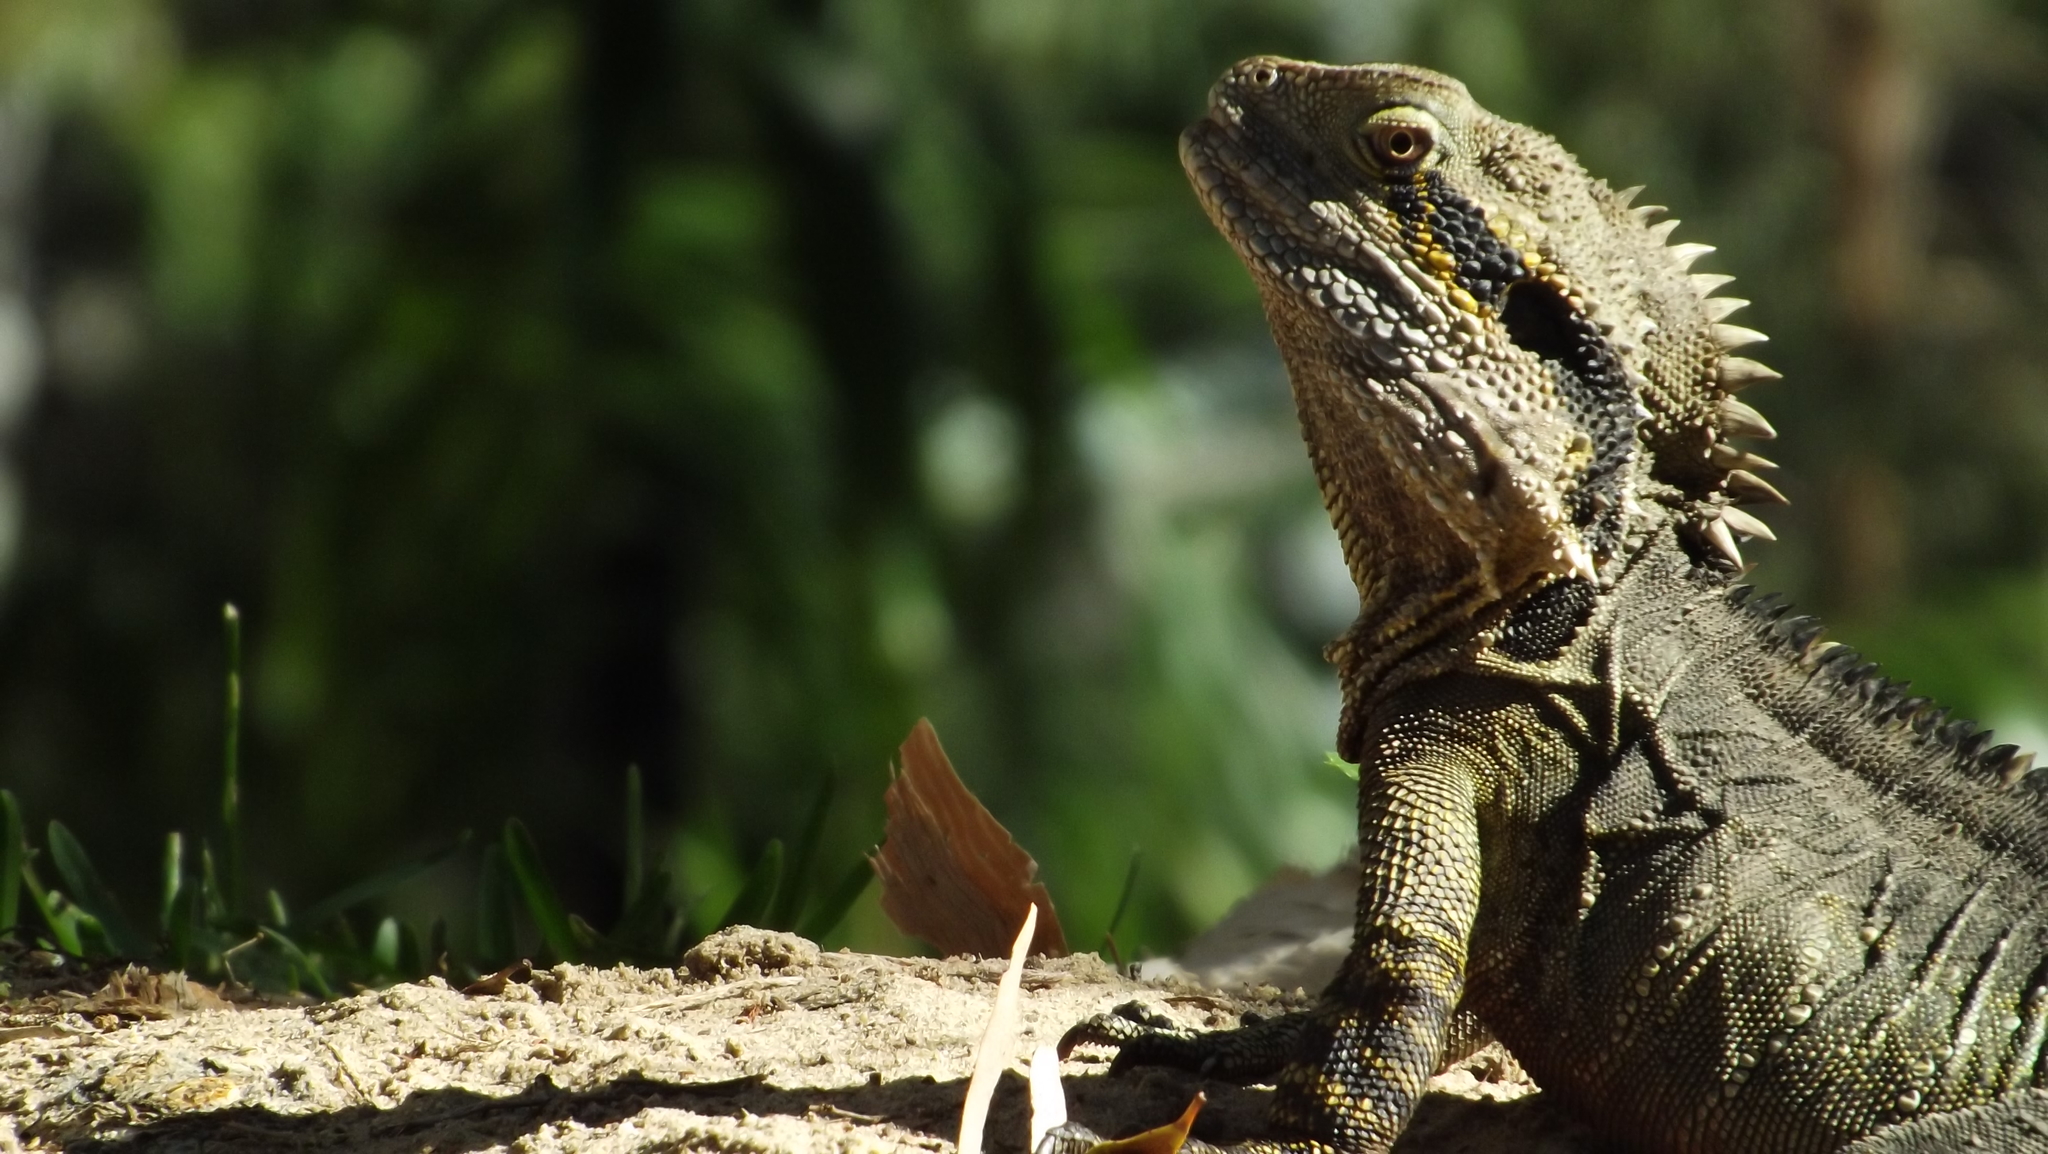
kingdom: Animalia
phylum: Chordata
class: Squamata
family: Agamidae
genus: Intellagama
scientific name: Intellagama lesueurii
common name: Eastern water dragon
